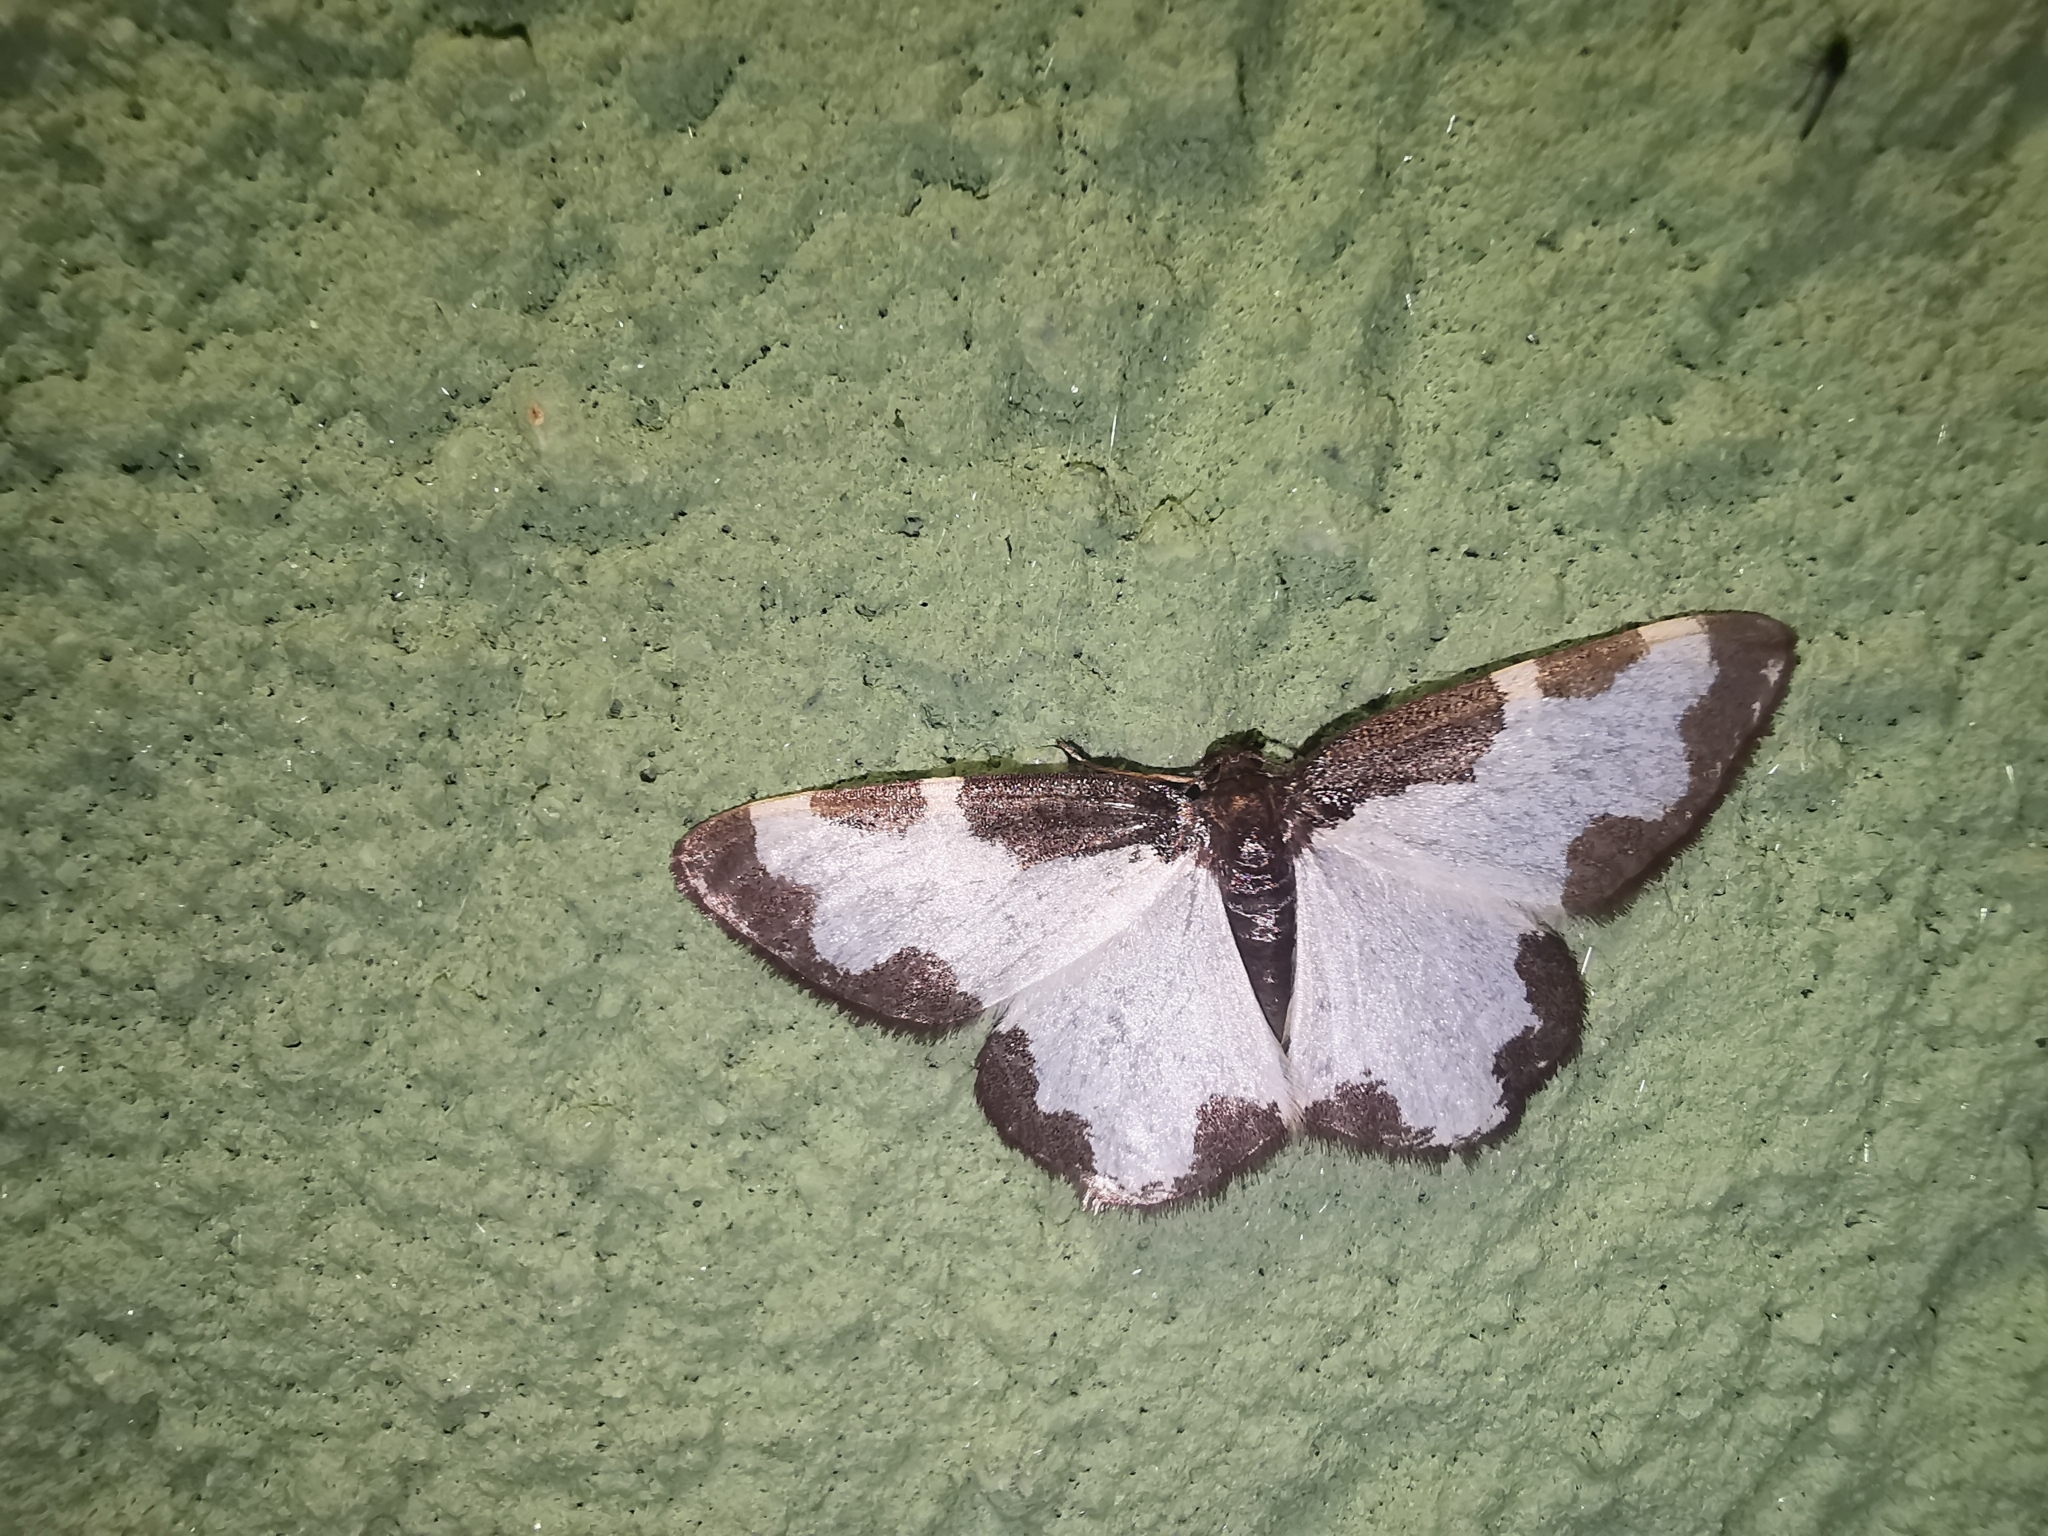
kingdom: Animalia
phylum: Arthropoda
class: Insecta
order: Lepidoptera
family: Geometridae
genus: Lomaspilis
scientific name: Lomaspilis marginata
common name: Clouded border
